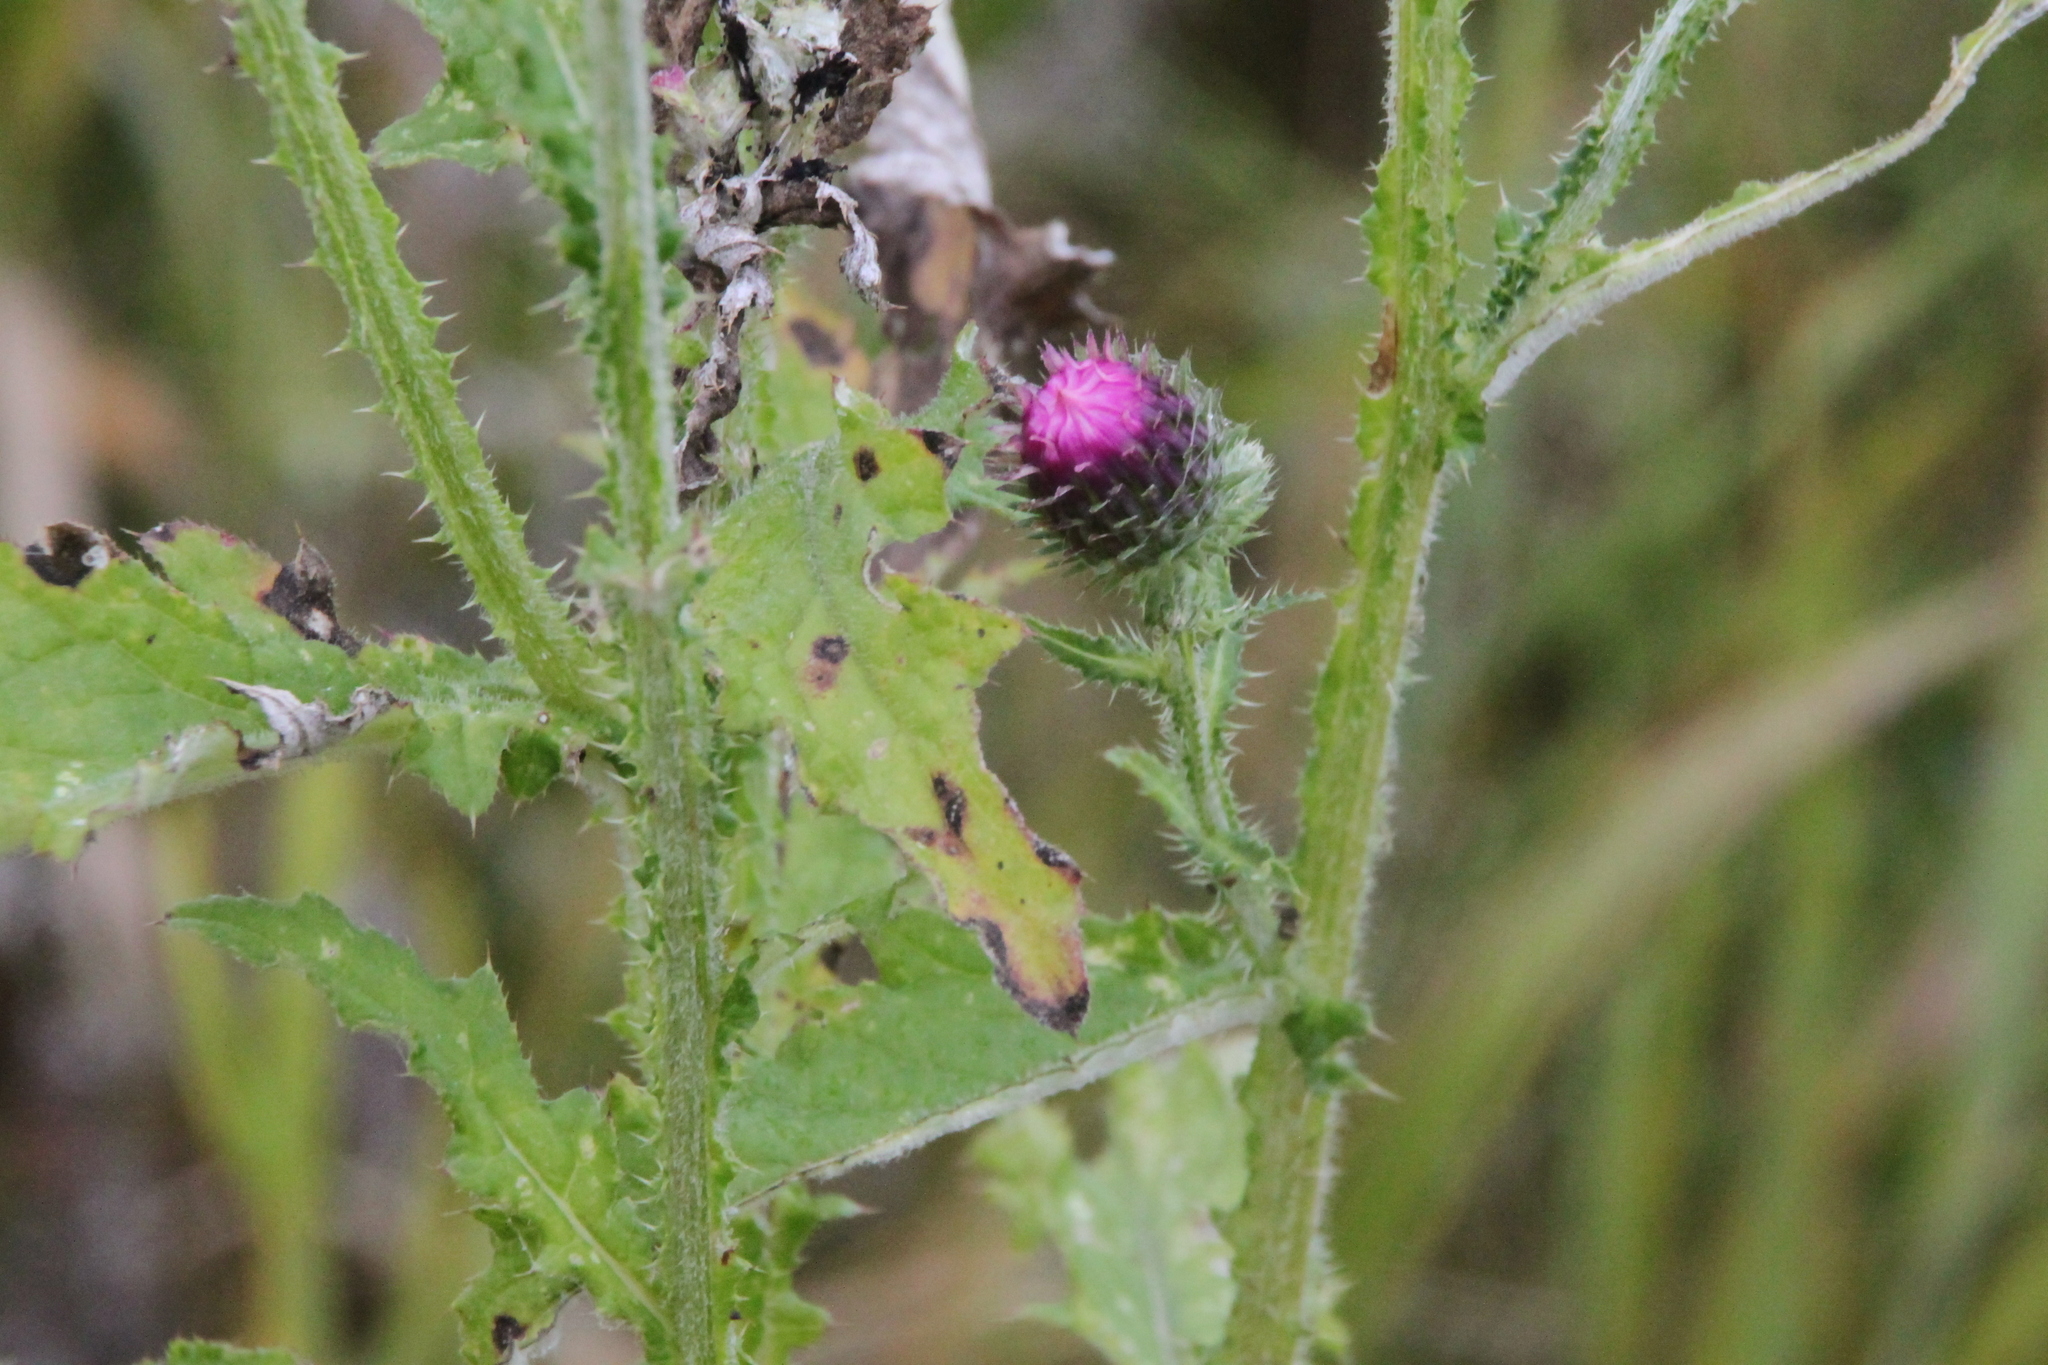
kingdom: Plantae
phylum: Tracheophyta
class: Magnoliopsida
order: Asterales
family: Asteraceae
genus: Carduus
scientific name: Carduus crispus
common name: Welted thistle
